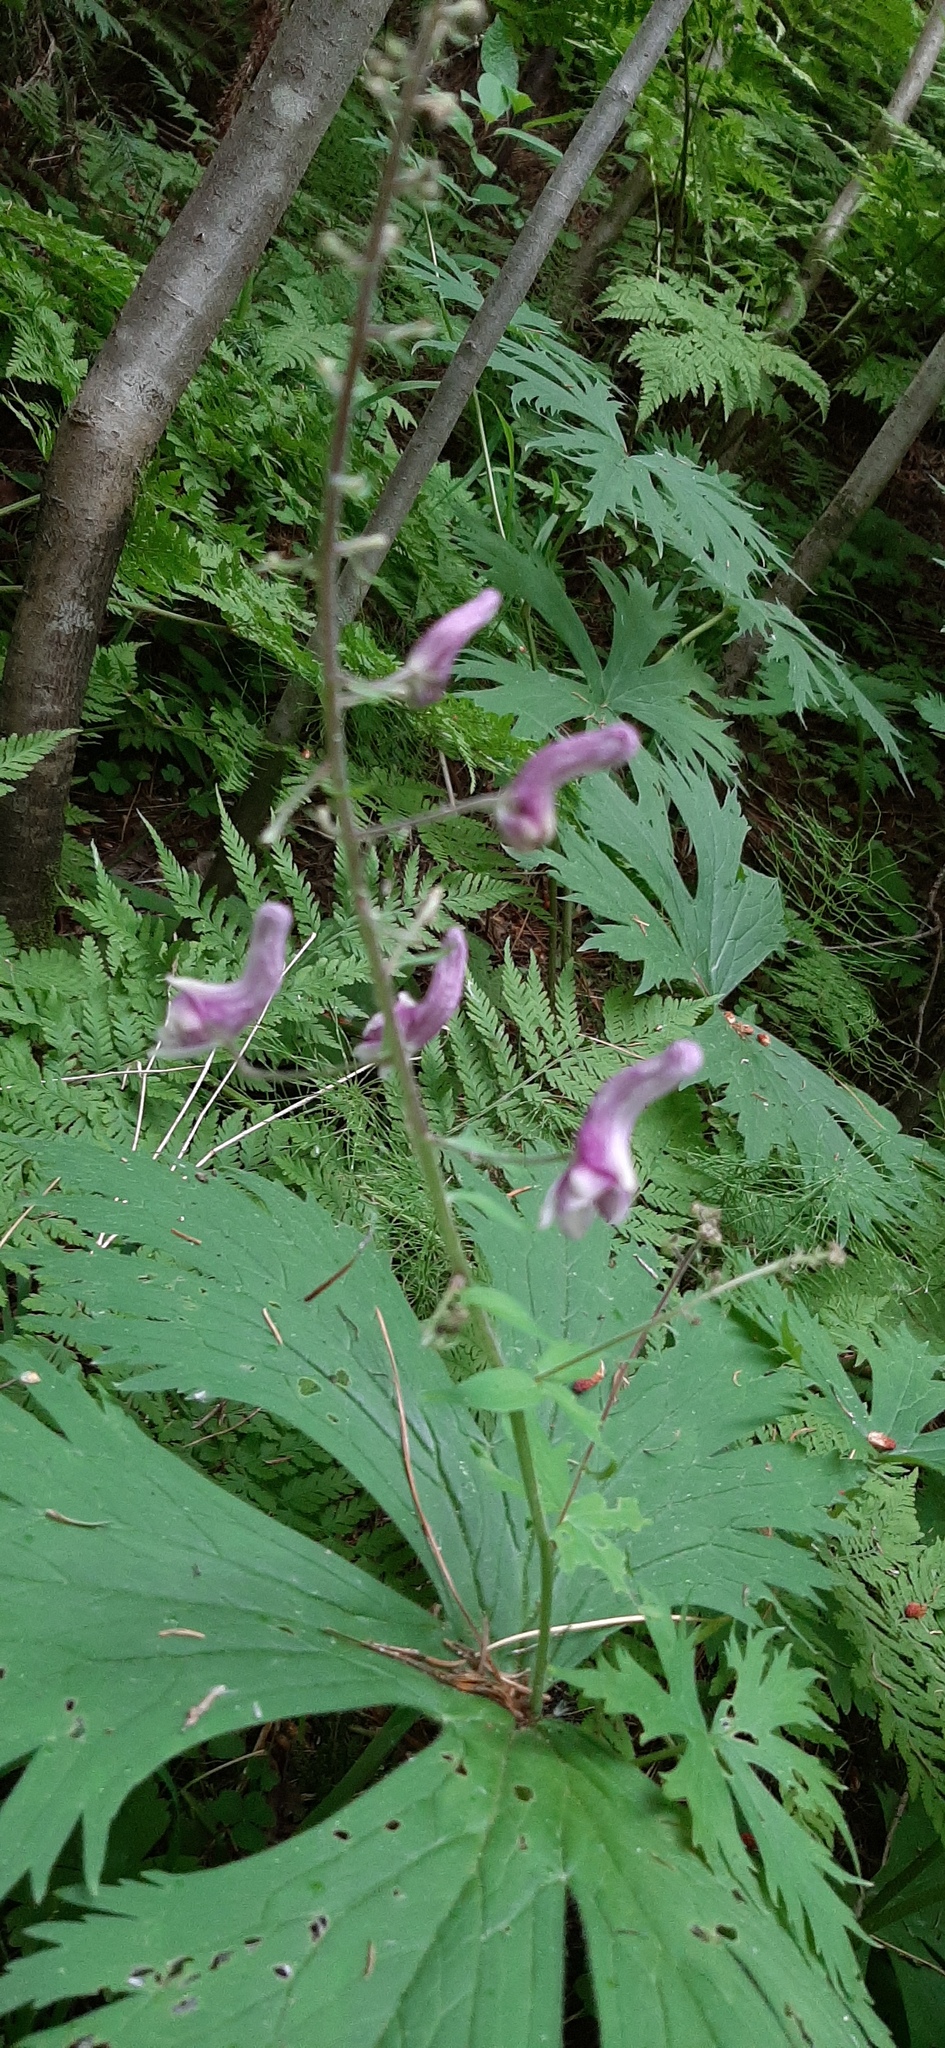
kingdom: Plantae
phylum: Tracheophyta
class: Magnoliopsida
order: Ranunculales
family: Ranunculaceae
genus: Aconitum
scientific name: Aconitum septentrionale
